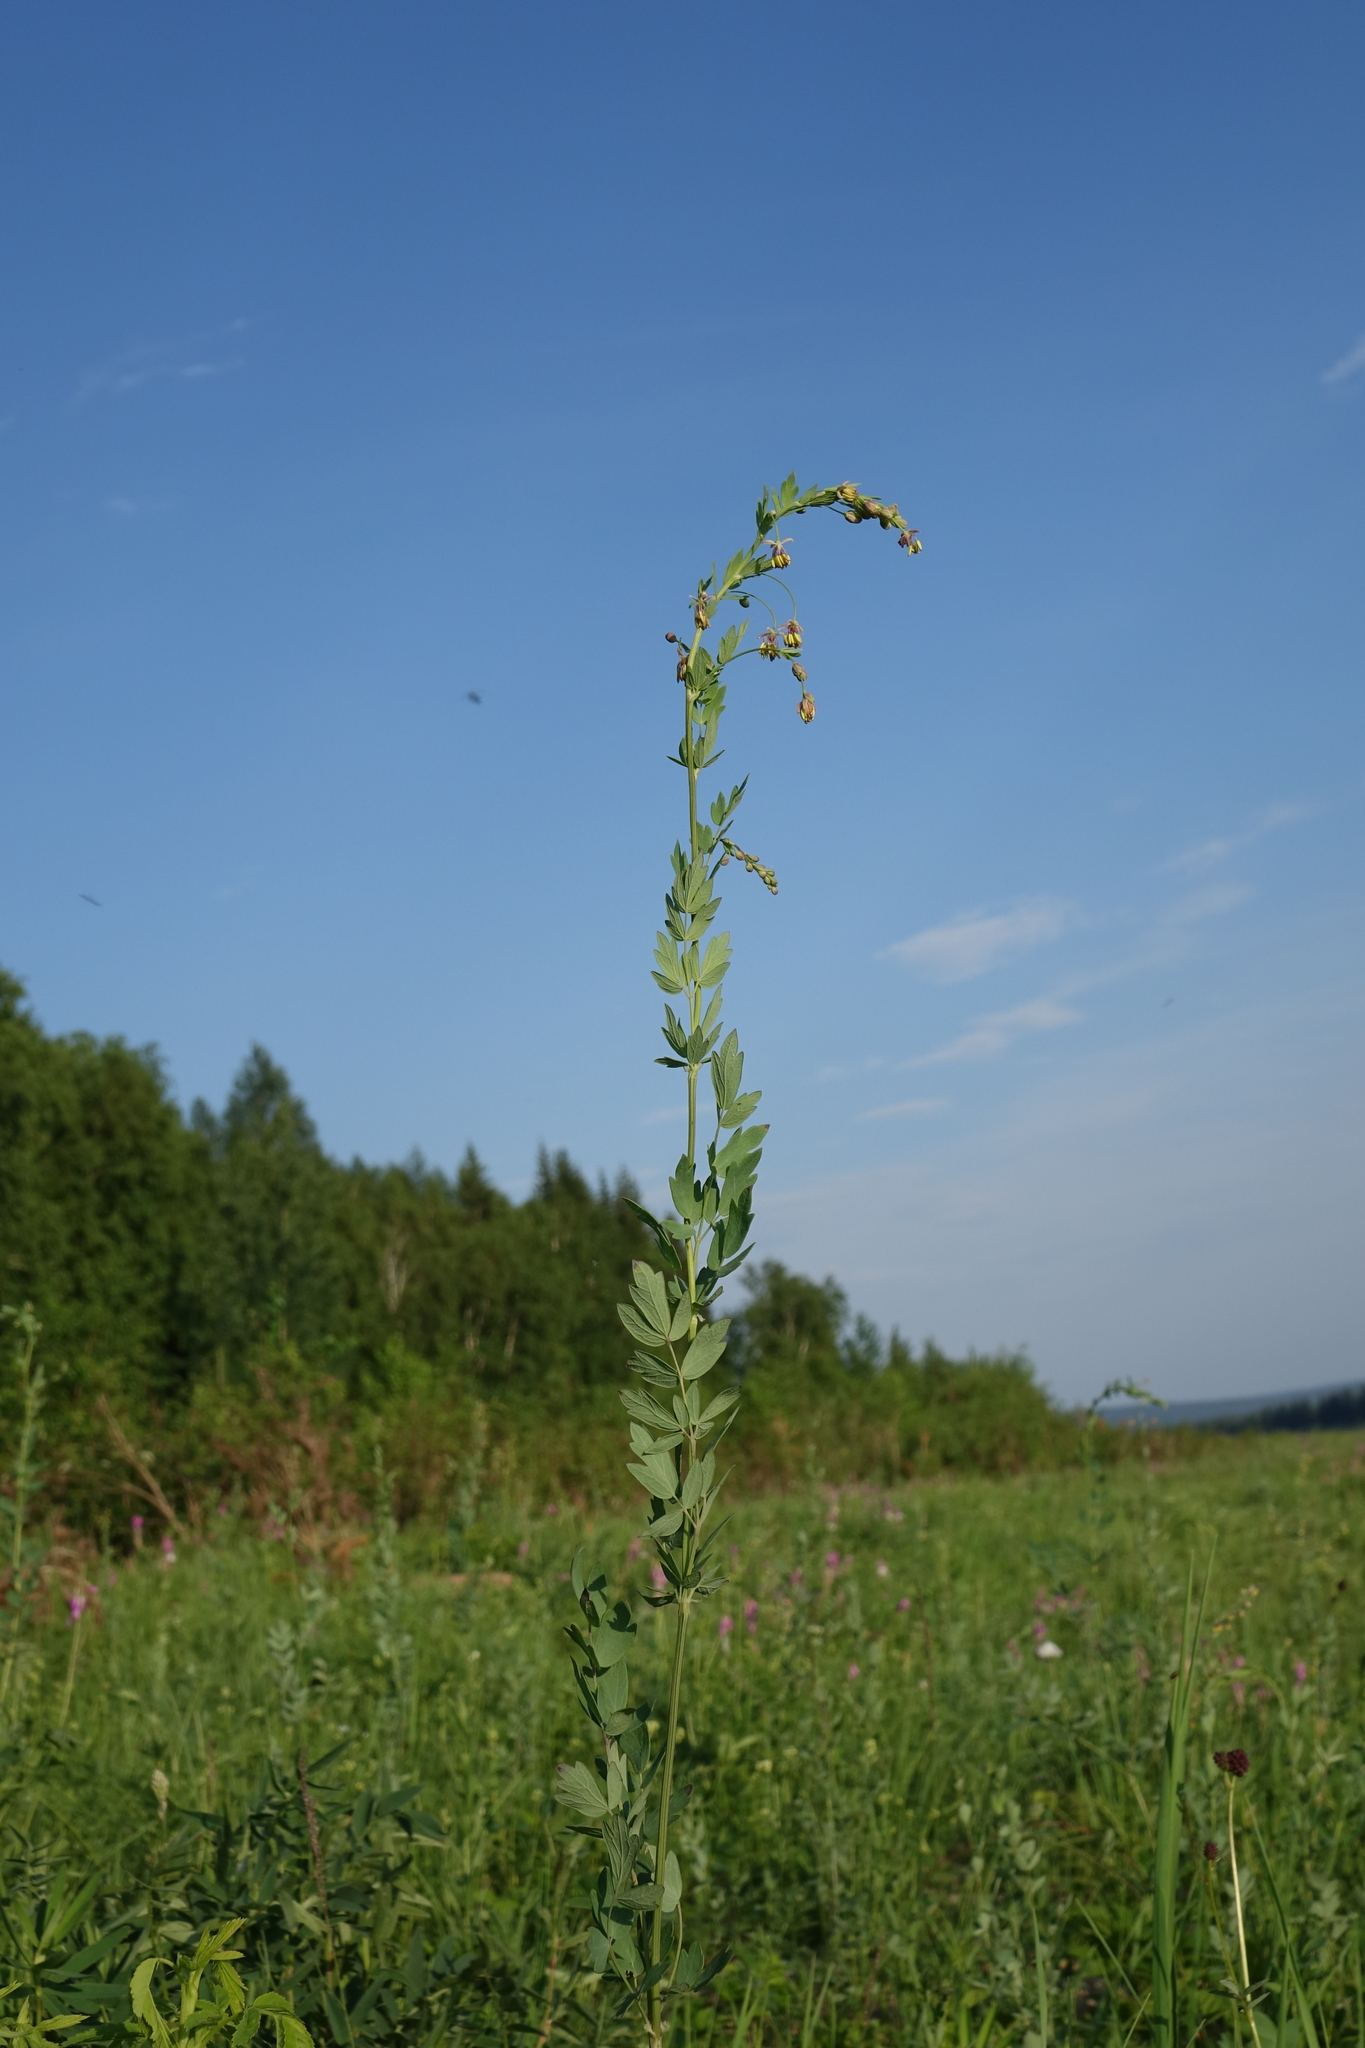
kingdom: Plantae
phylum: Tracheophyta
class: Magnoliopsida
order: Ranunculales
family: Ranunculaceae
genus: Thalictrum
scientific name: Thalictrum simplex
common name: Small meadow-rue
